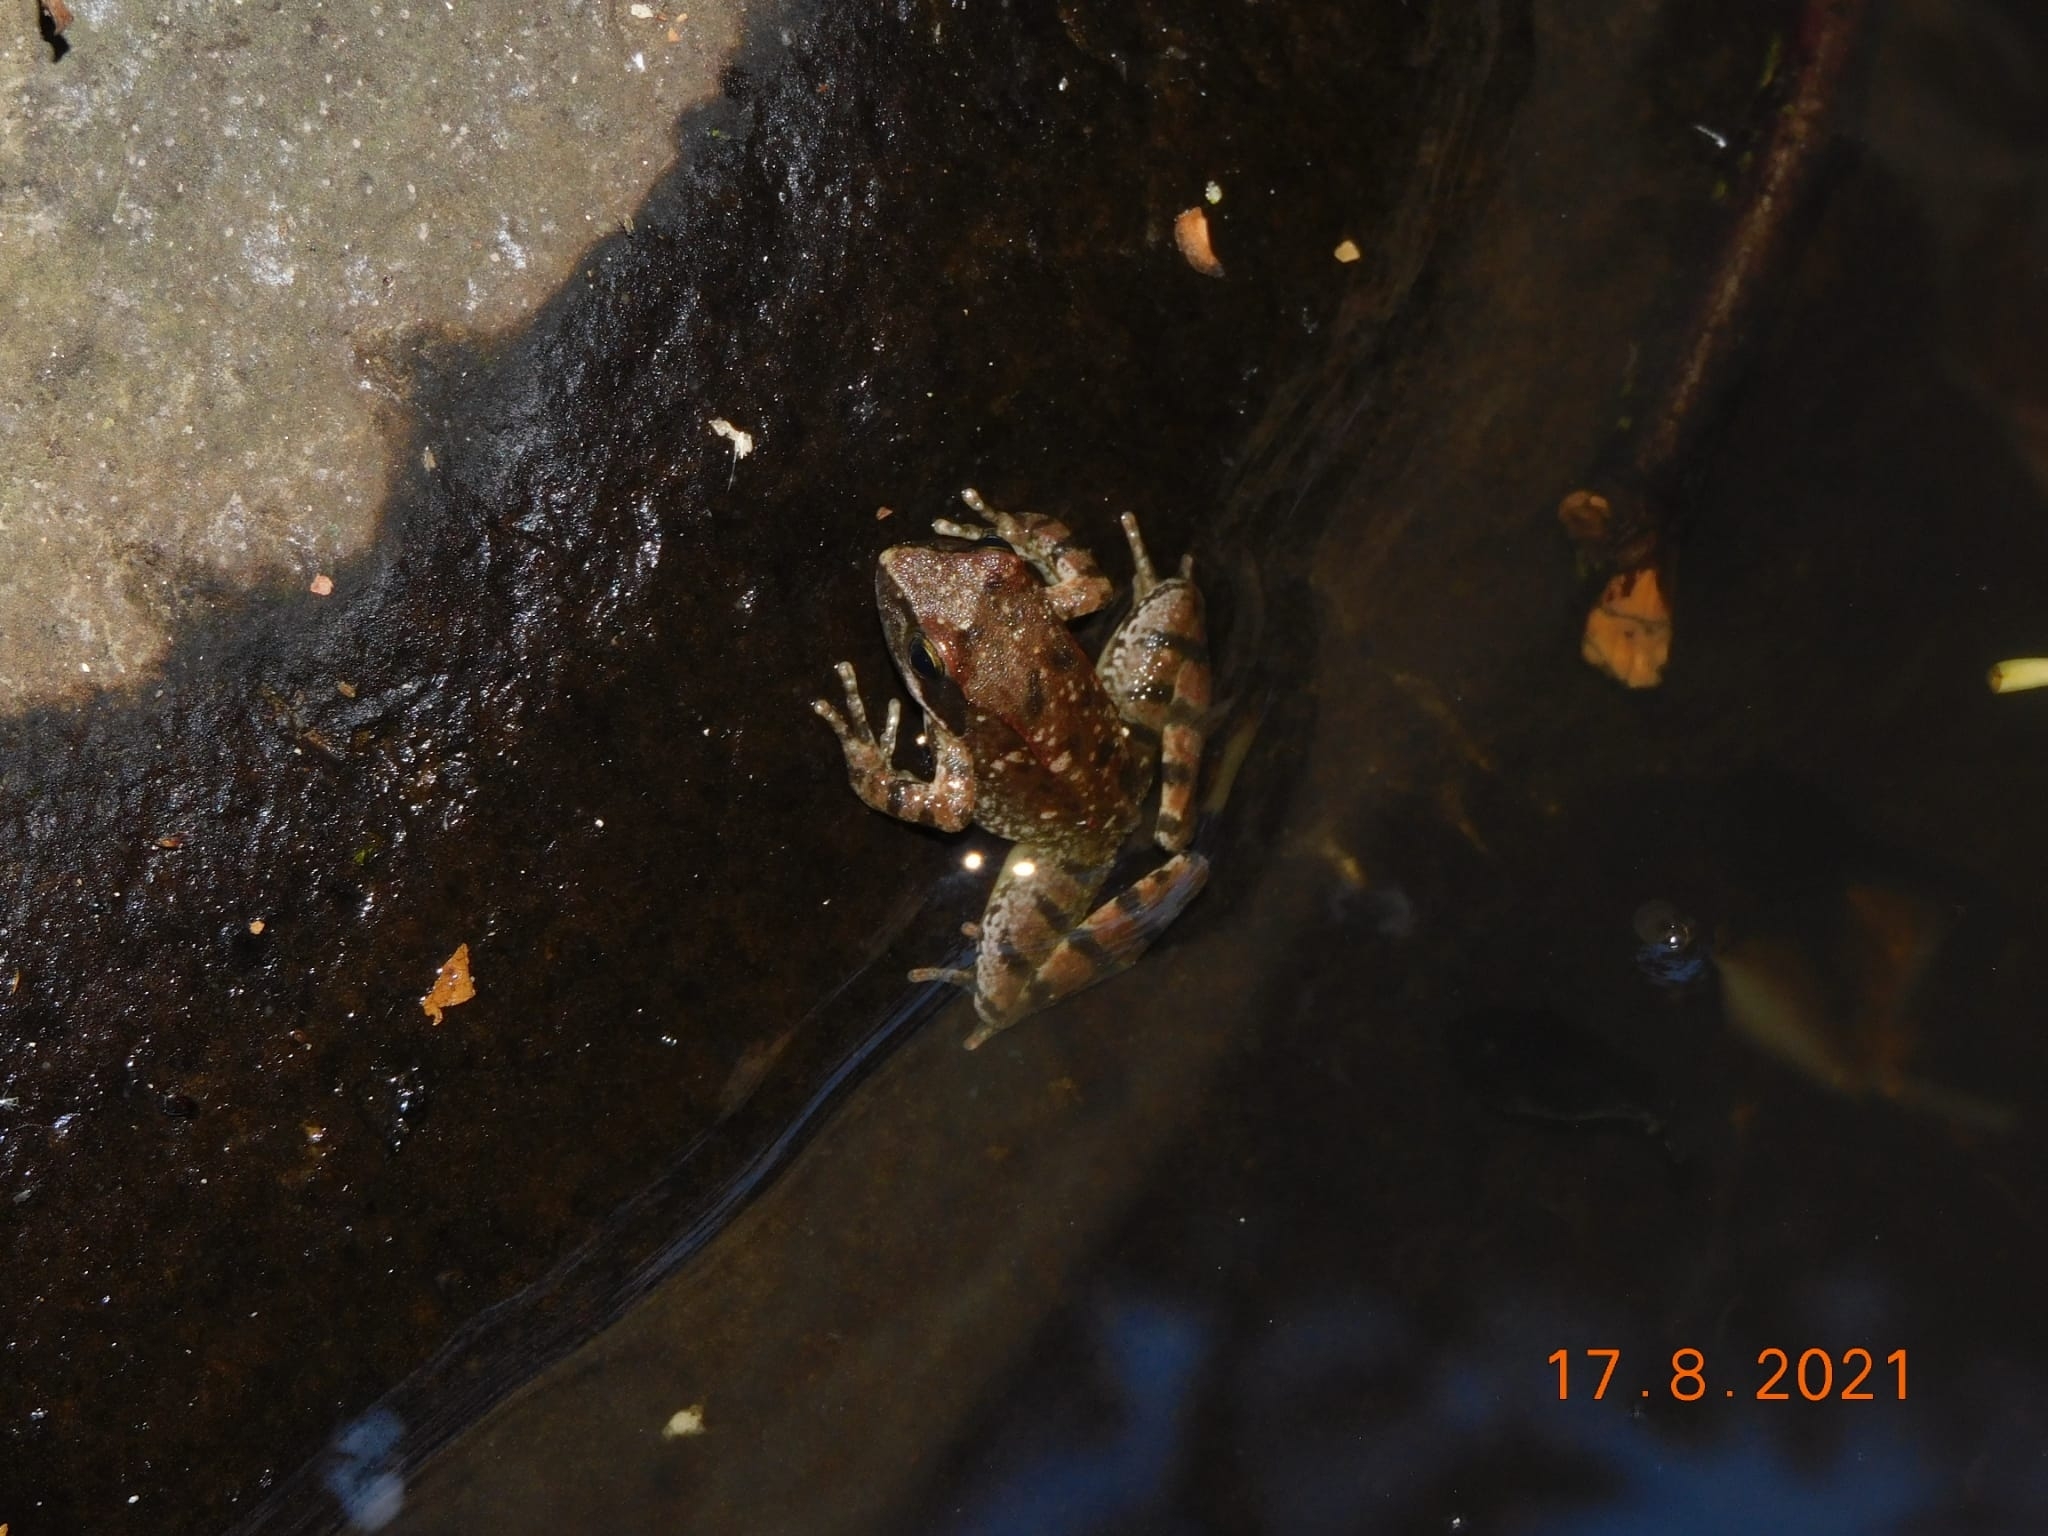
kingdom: Animalia
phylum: Chordata
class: Amphibia
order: Anura
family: Ranidae
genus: Rana
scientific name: Rana italica
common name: Italian stream frog
